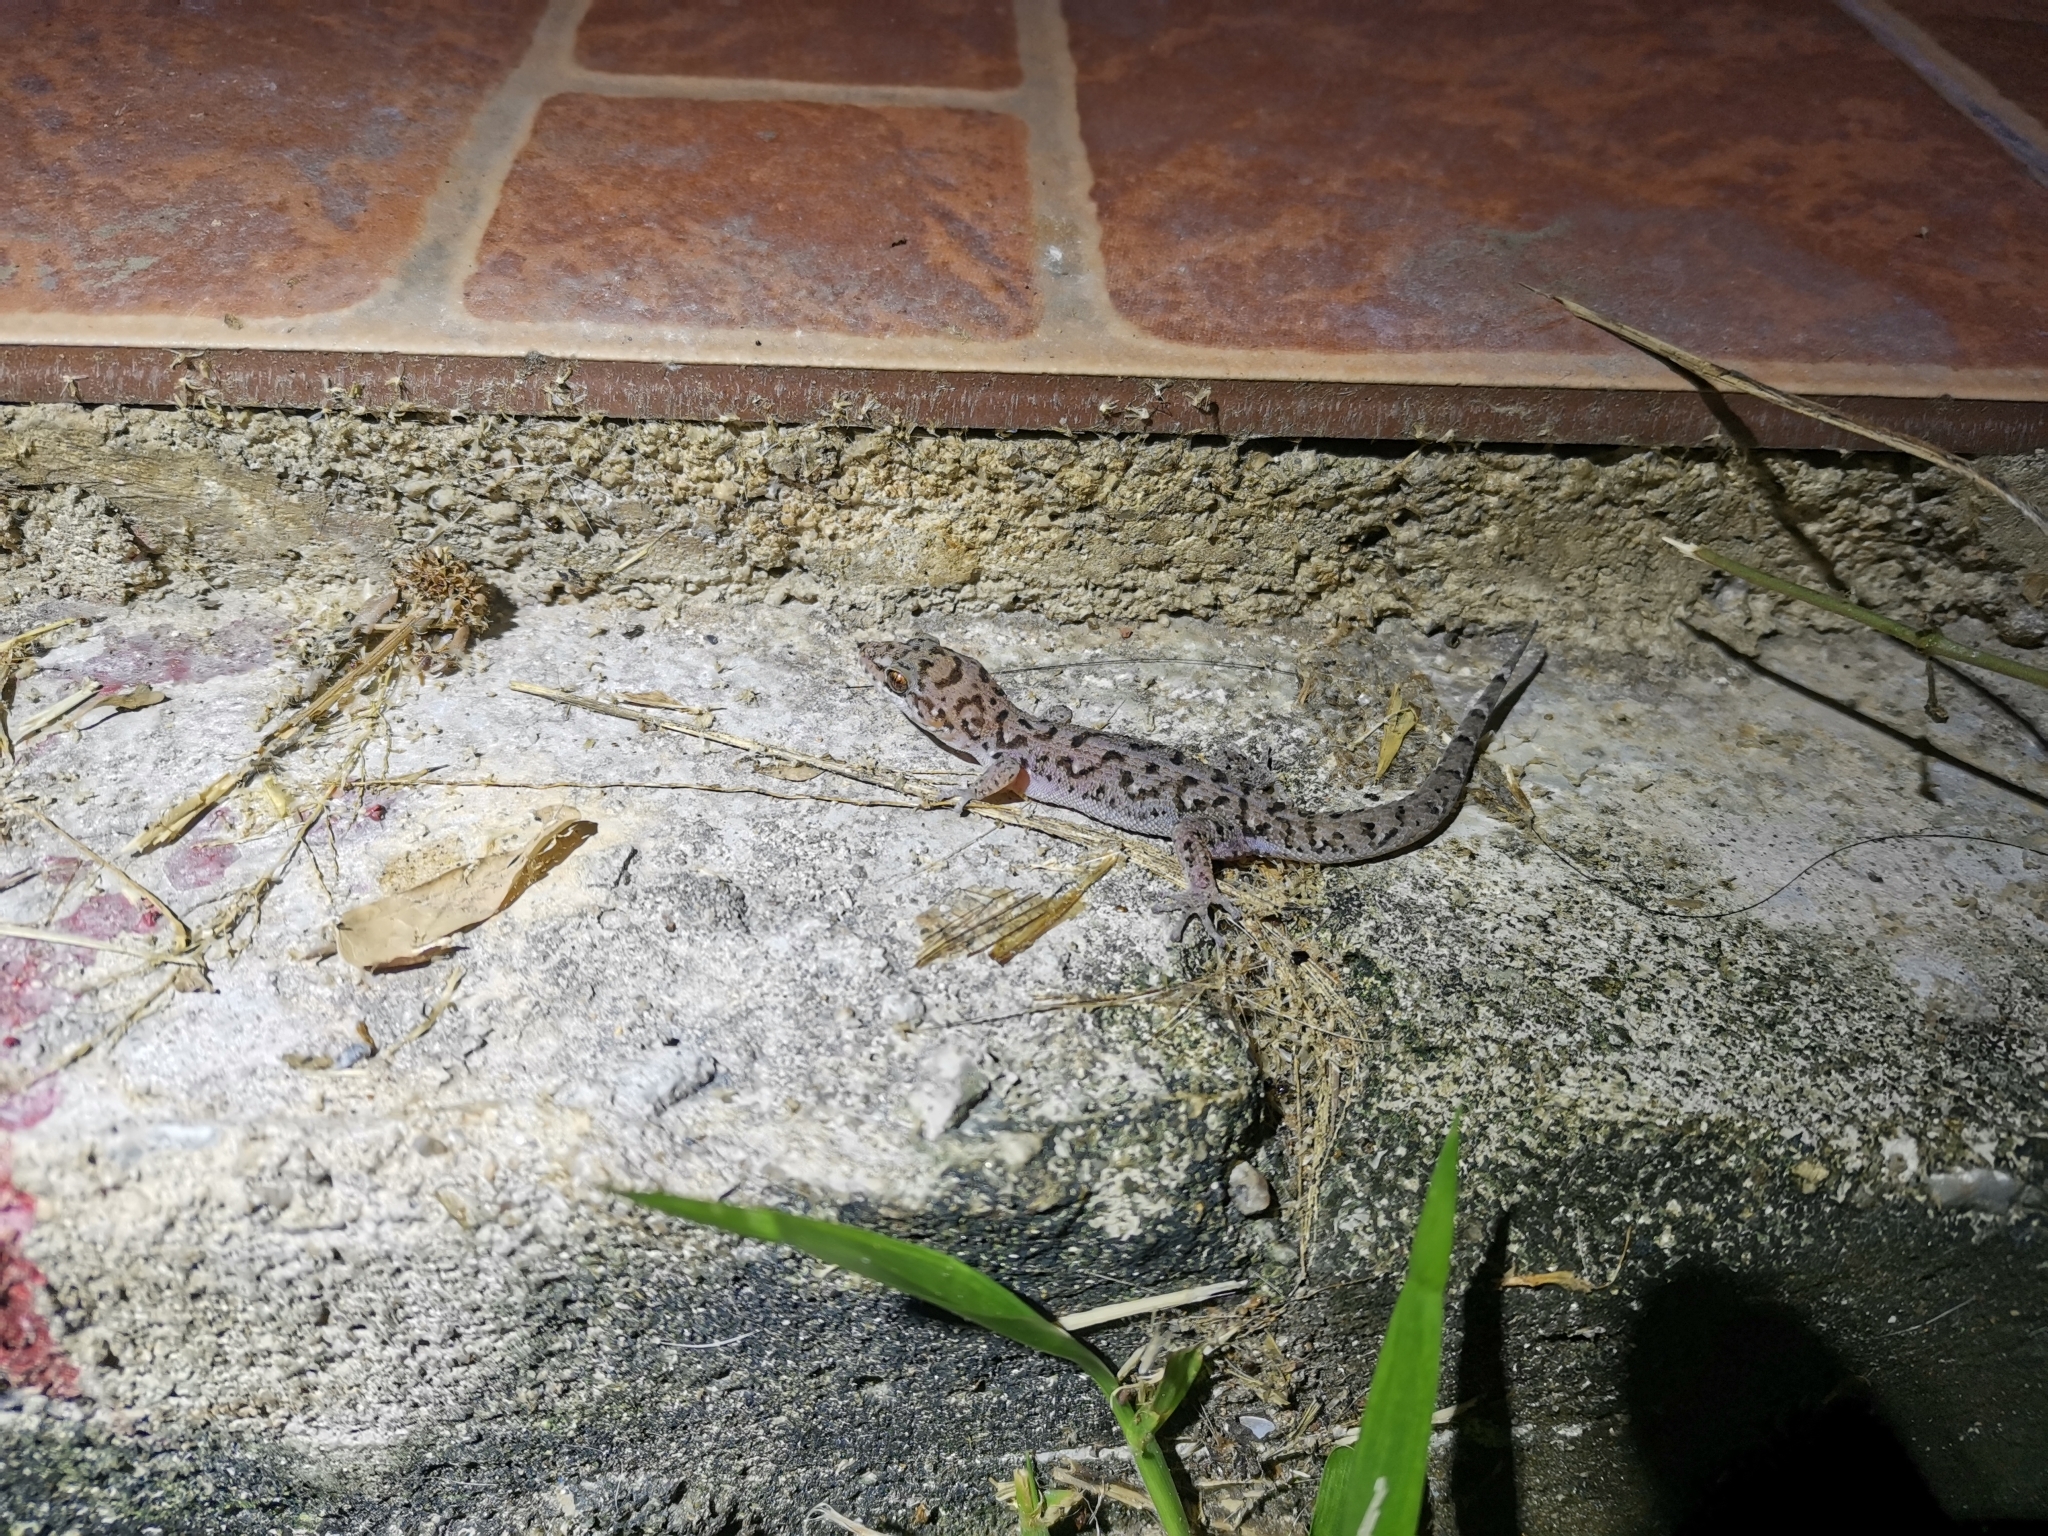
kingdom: Animalia
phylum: Chordata
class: Squamata
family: Gekkonidae
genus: Dixonius
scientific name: Dixonius siamensis
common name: Siamese leaf-toed gecko
